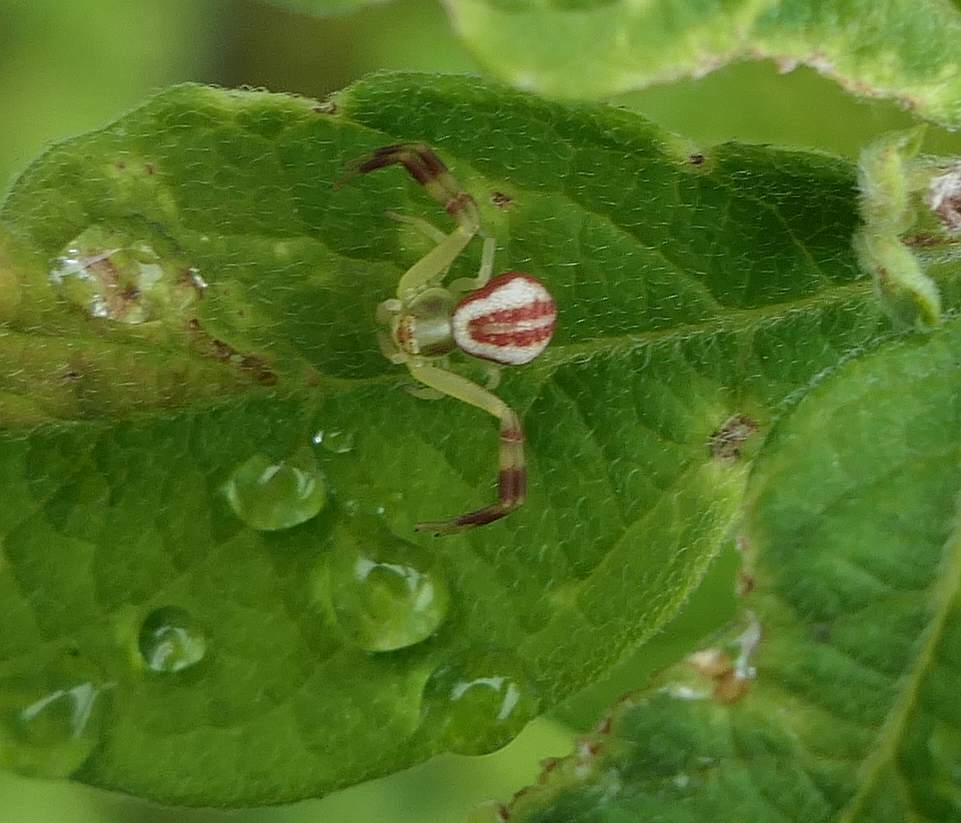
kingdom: Animalia
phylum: Arthropoda
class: Arachnida
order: Araneae
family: Thomisidae
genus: Misumena
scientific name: Misumena vatia
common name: Goldenrod crab spider
